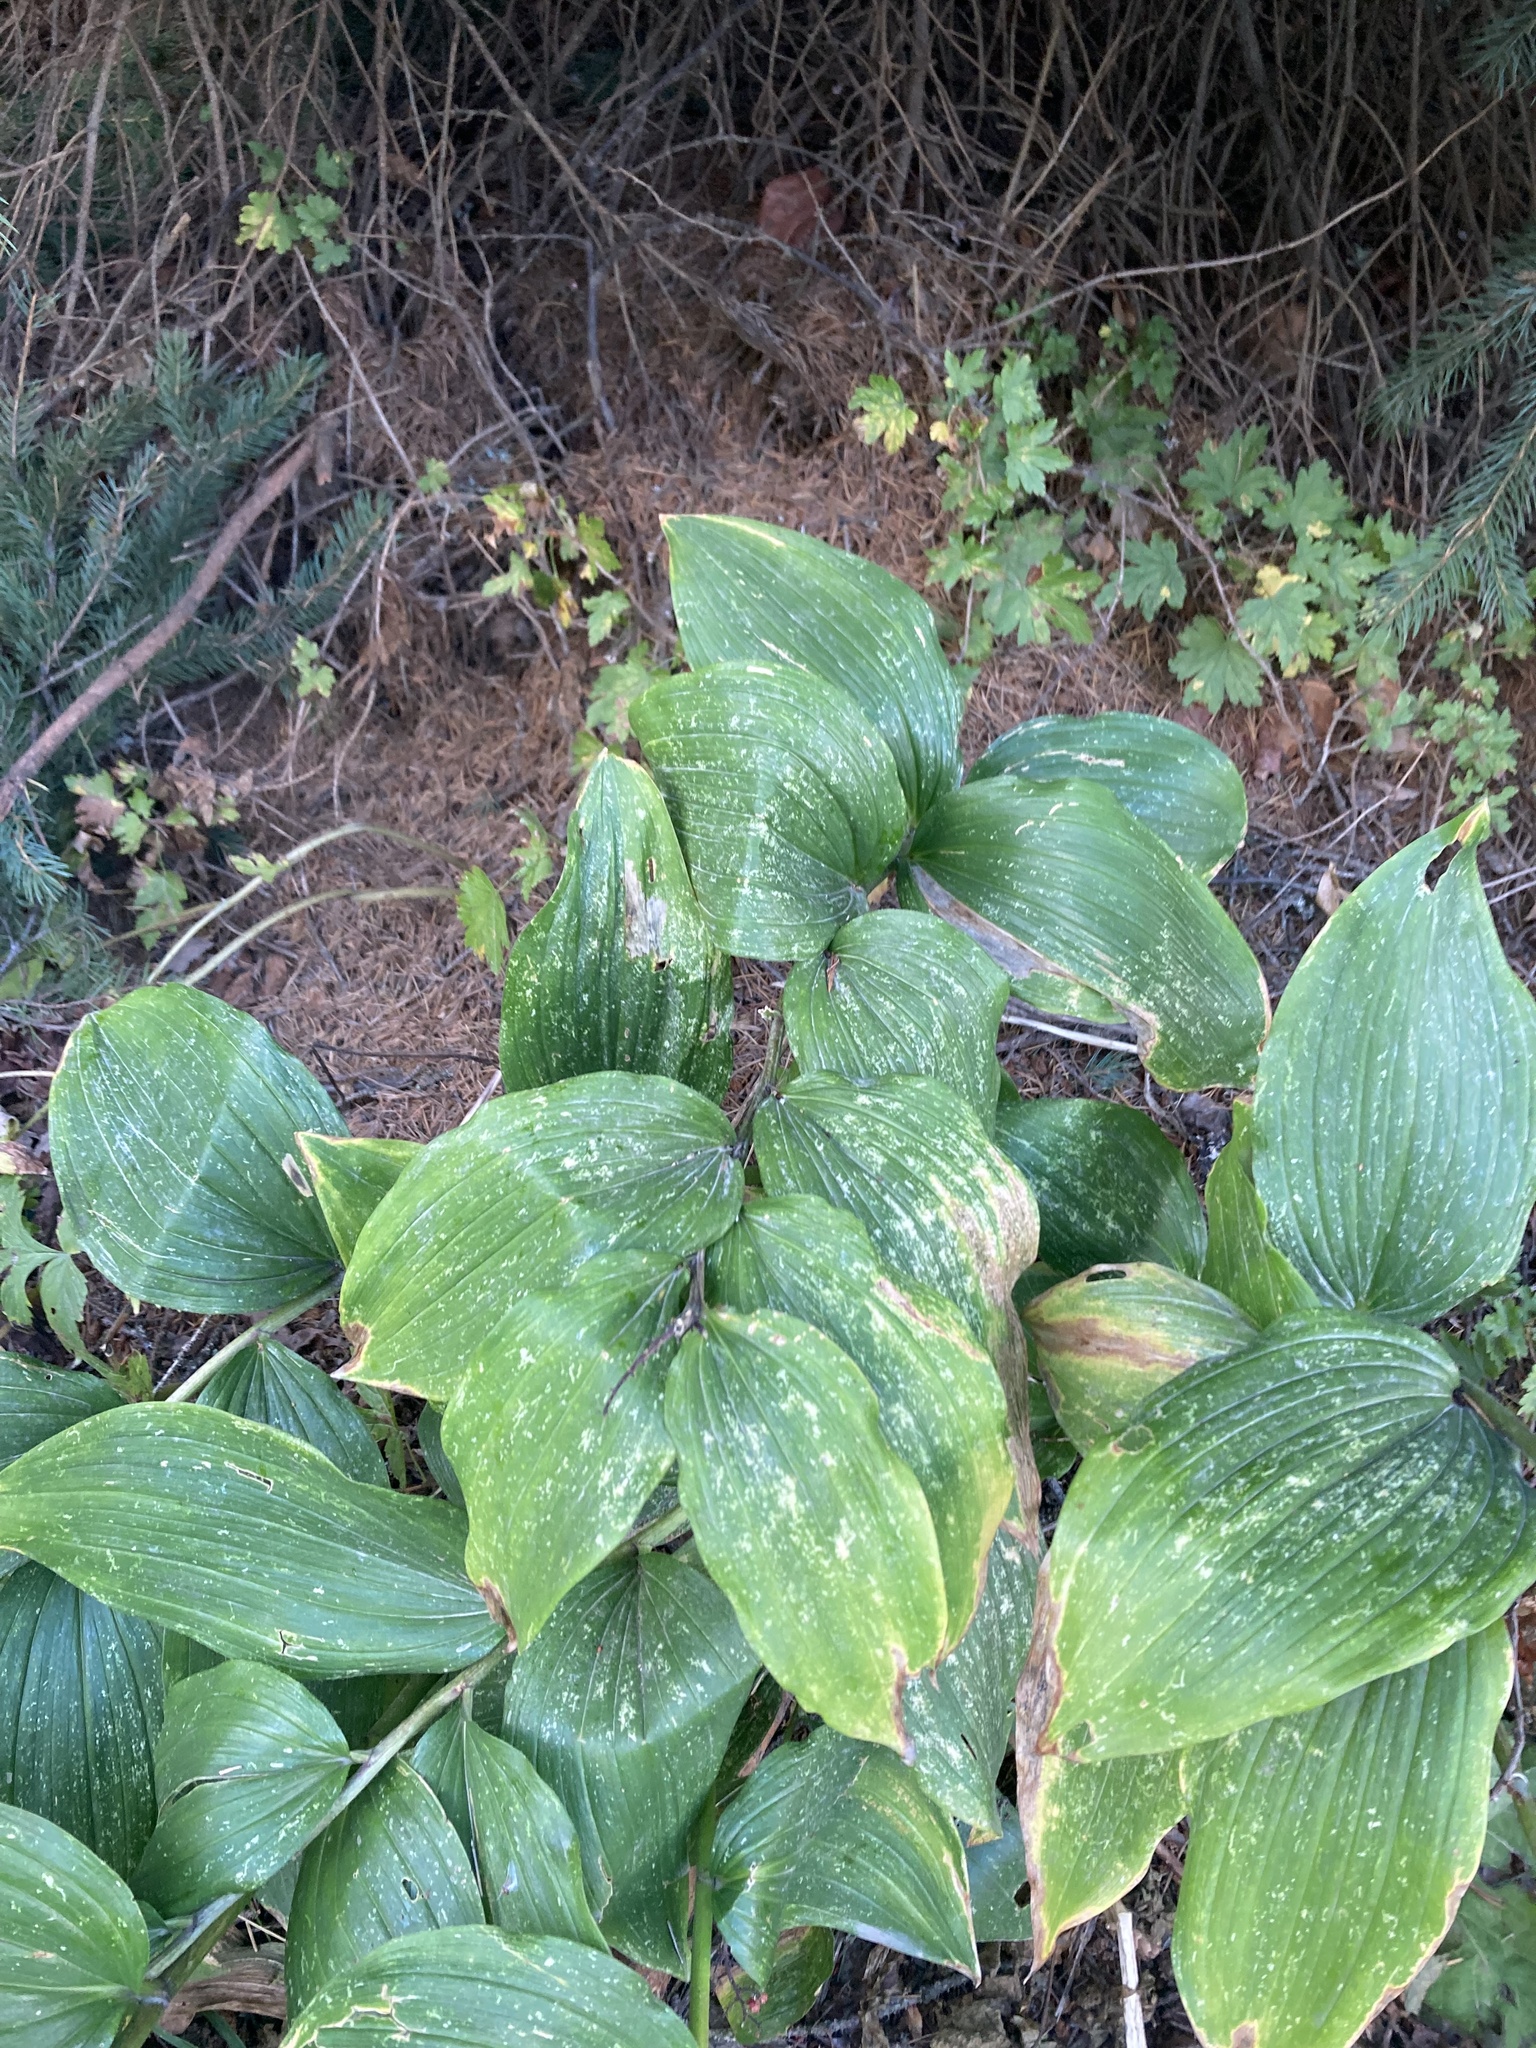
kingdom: Plantae
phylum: Tracheophyta
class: Liliopsida
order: Asparagales
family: Asparagaceae
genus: Maianthemum
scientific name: Maianthemum racemosum
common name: False spikenard
